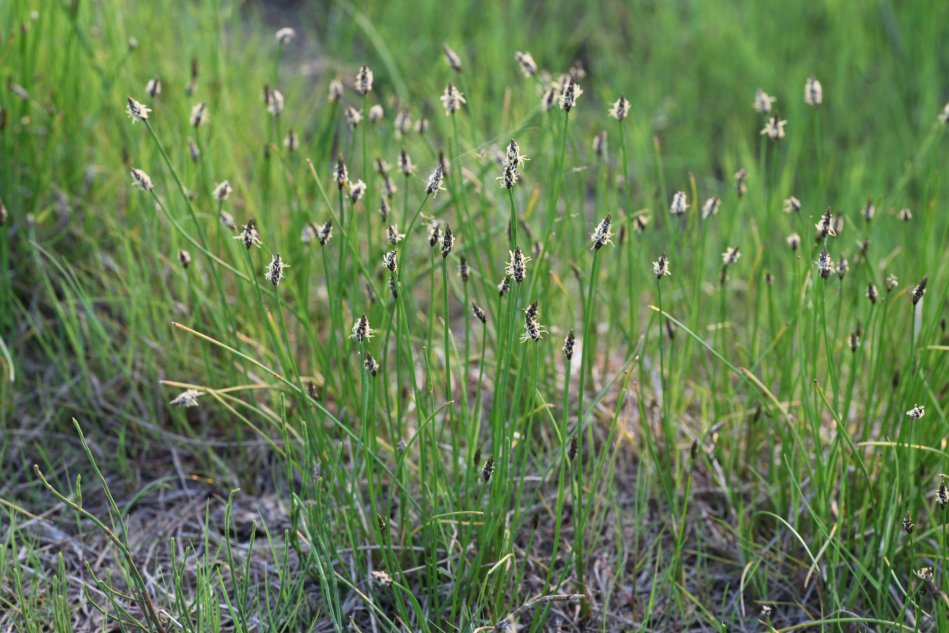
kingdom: Plantae
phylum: Tracheophyta
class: Liliopsida
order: Poales
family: Cyperaceae
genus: Eleocharis
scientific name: Eleocharis palustris
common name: Common spike-rush
